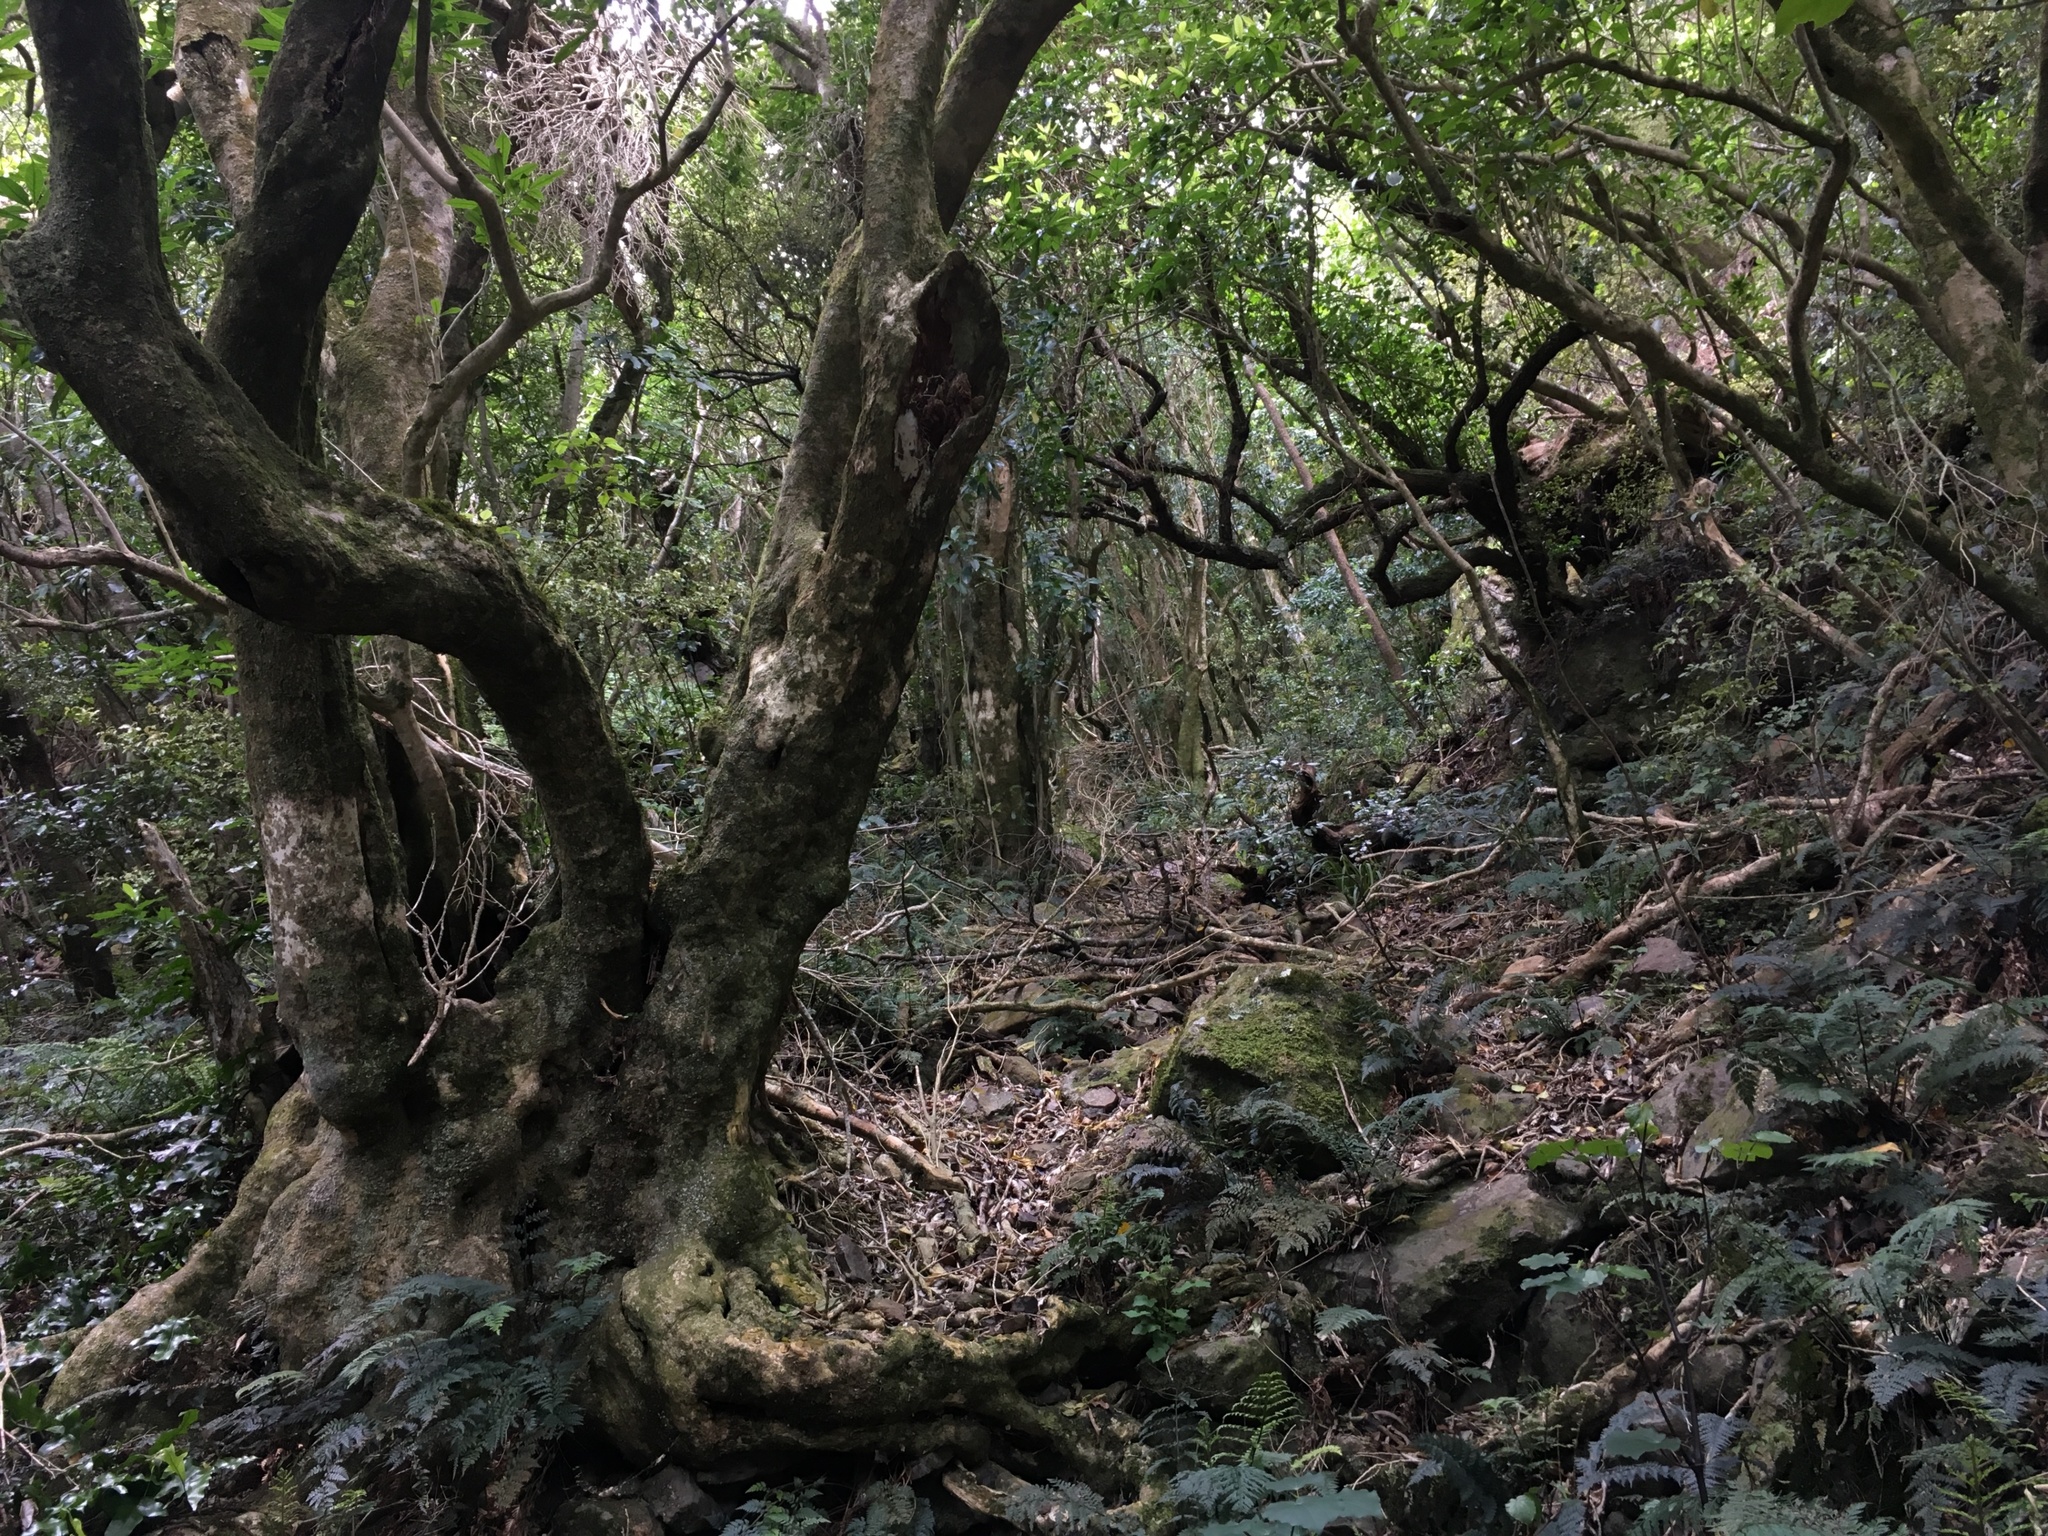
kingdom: Plantae
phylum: Tracheophyta
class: Magnoliopsida
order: Malpighiales
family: Violaceae
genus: Melicytus
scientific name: Melicytus ramiflorus
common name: Mahoe
